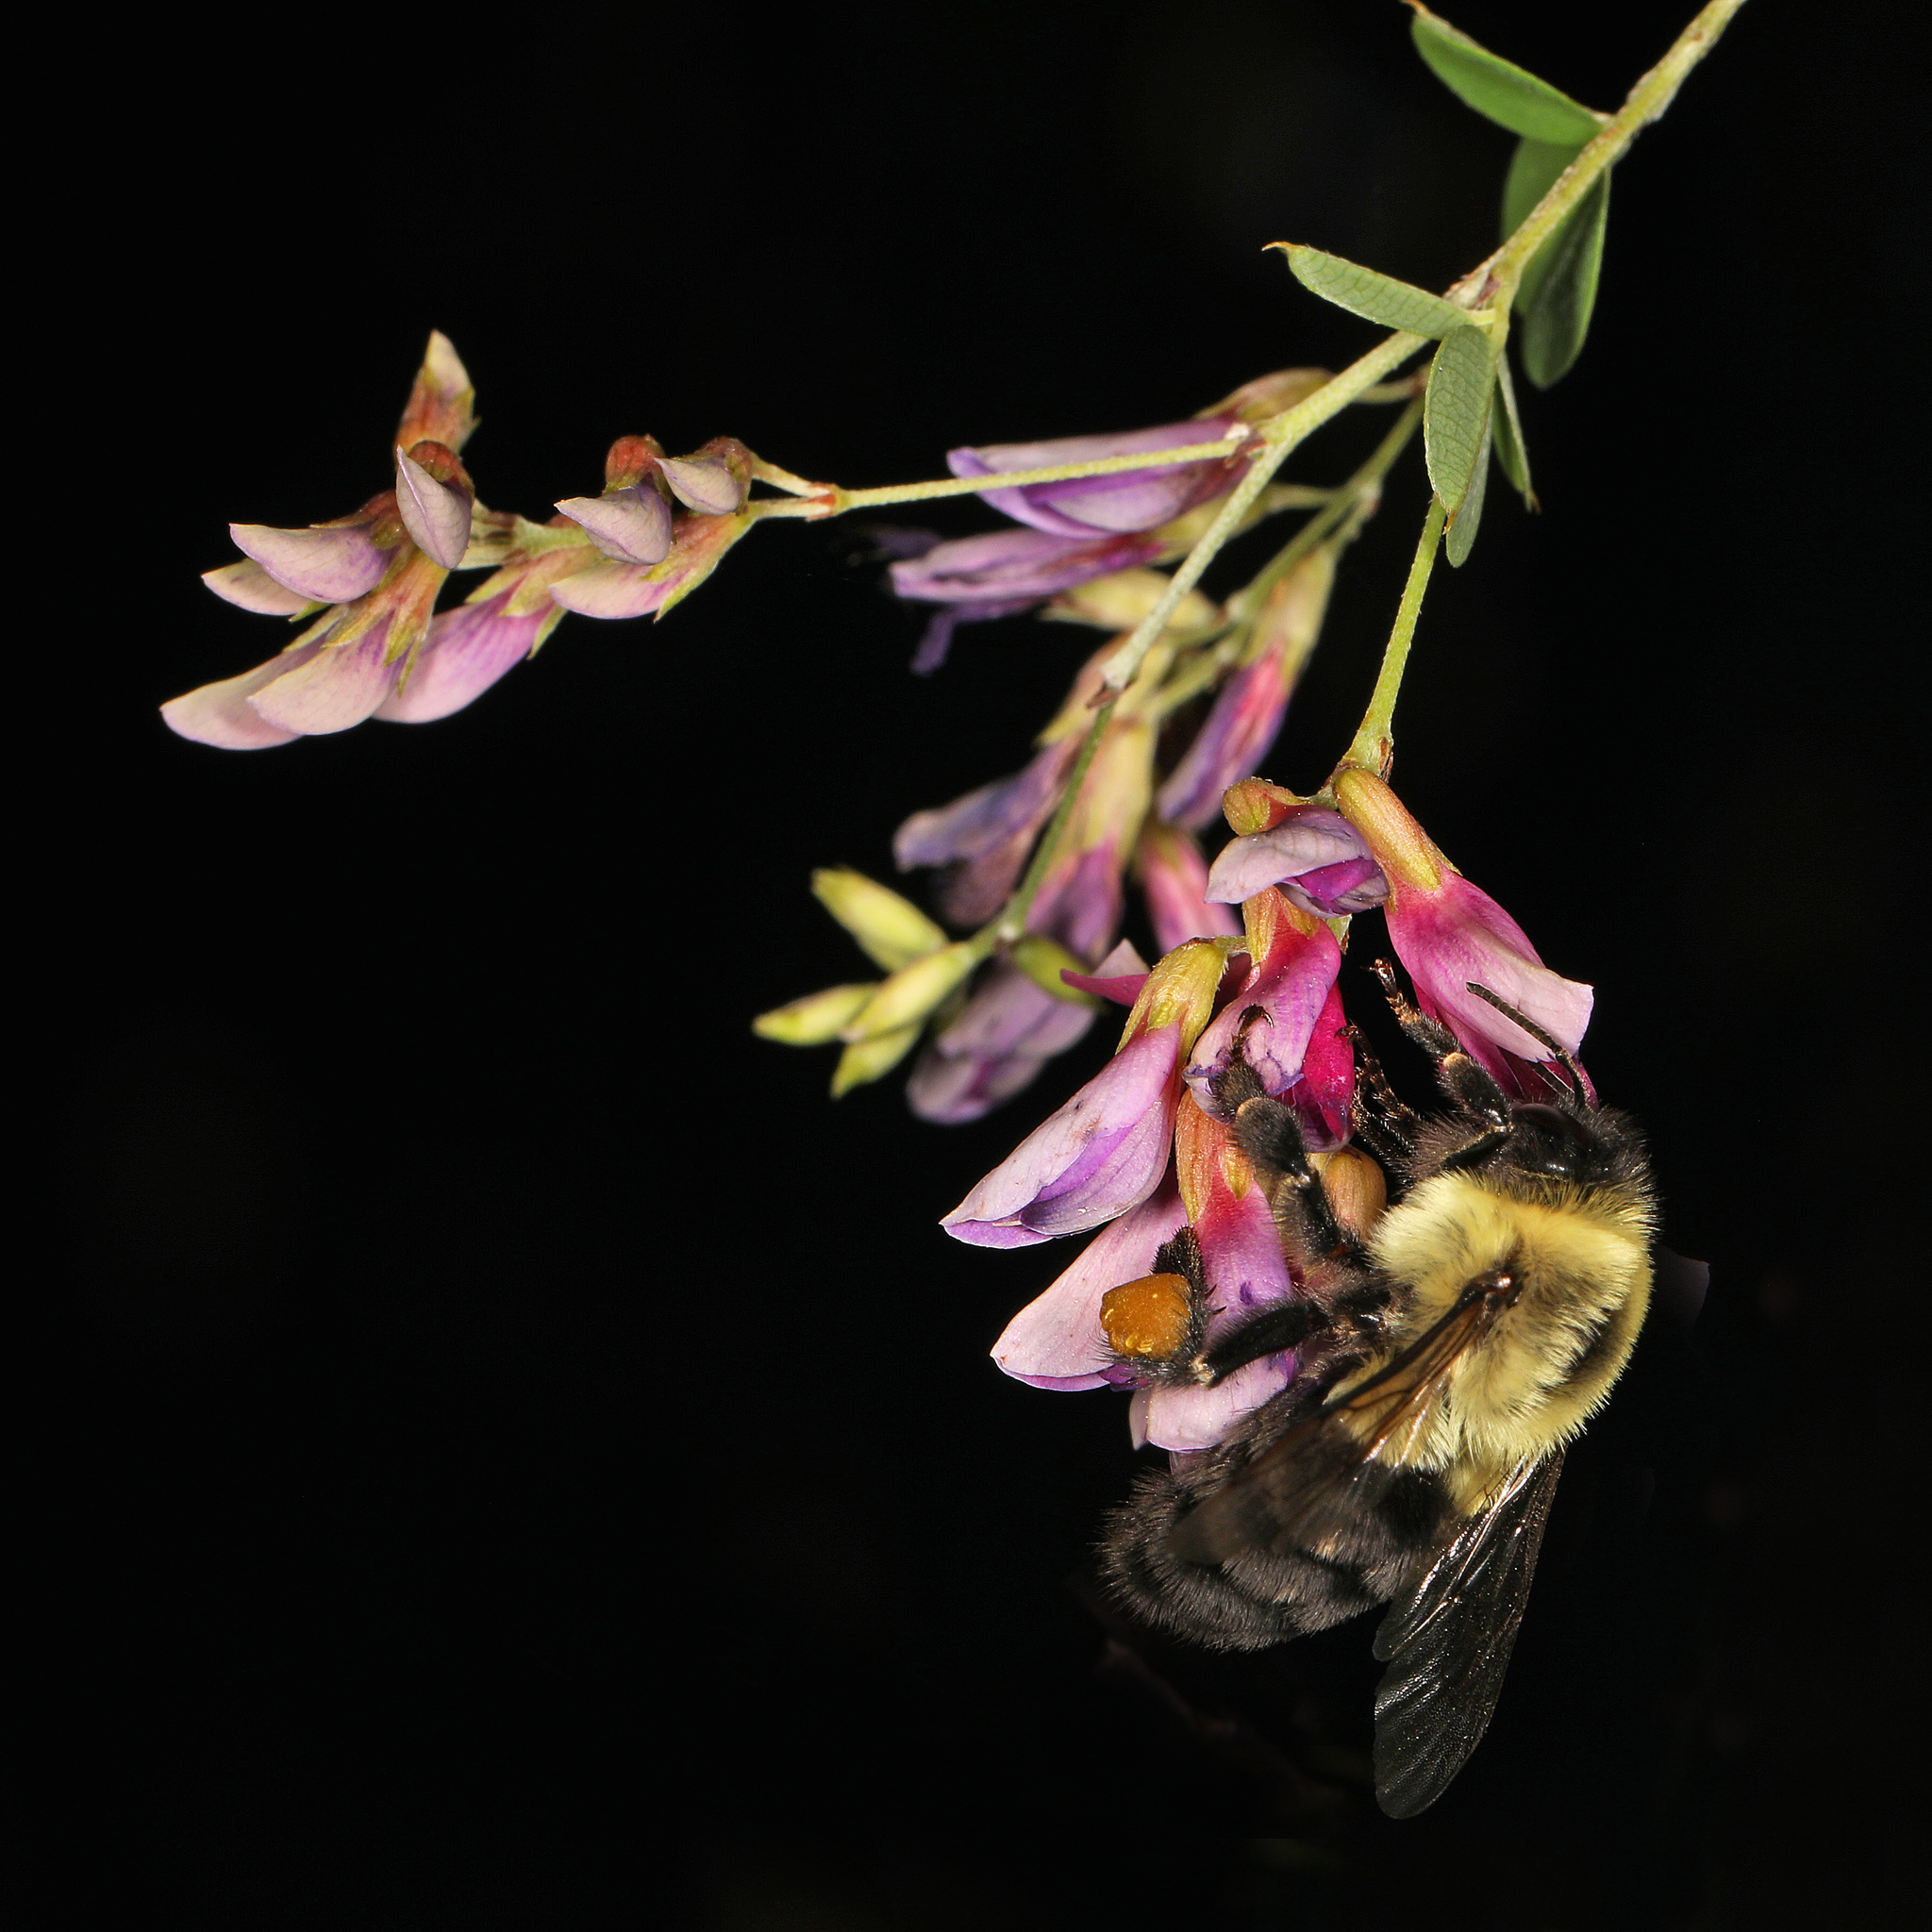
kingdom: Animalia
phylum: Arthropoda
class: Insecta
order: Hymenoptera
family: Apidae
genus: Bombus
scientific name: Bombus impatiens
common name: Common eastern bumble bee
